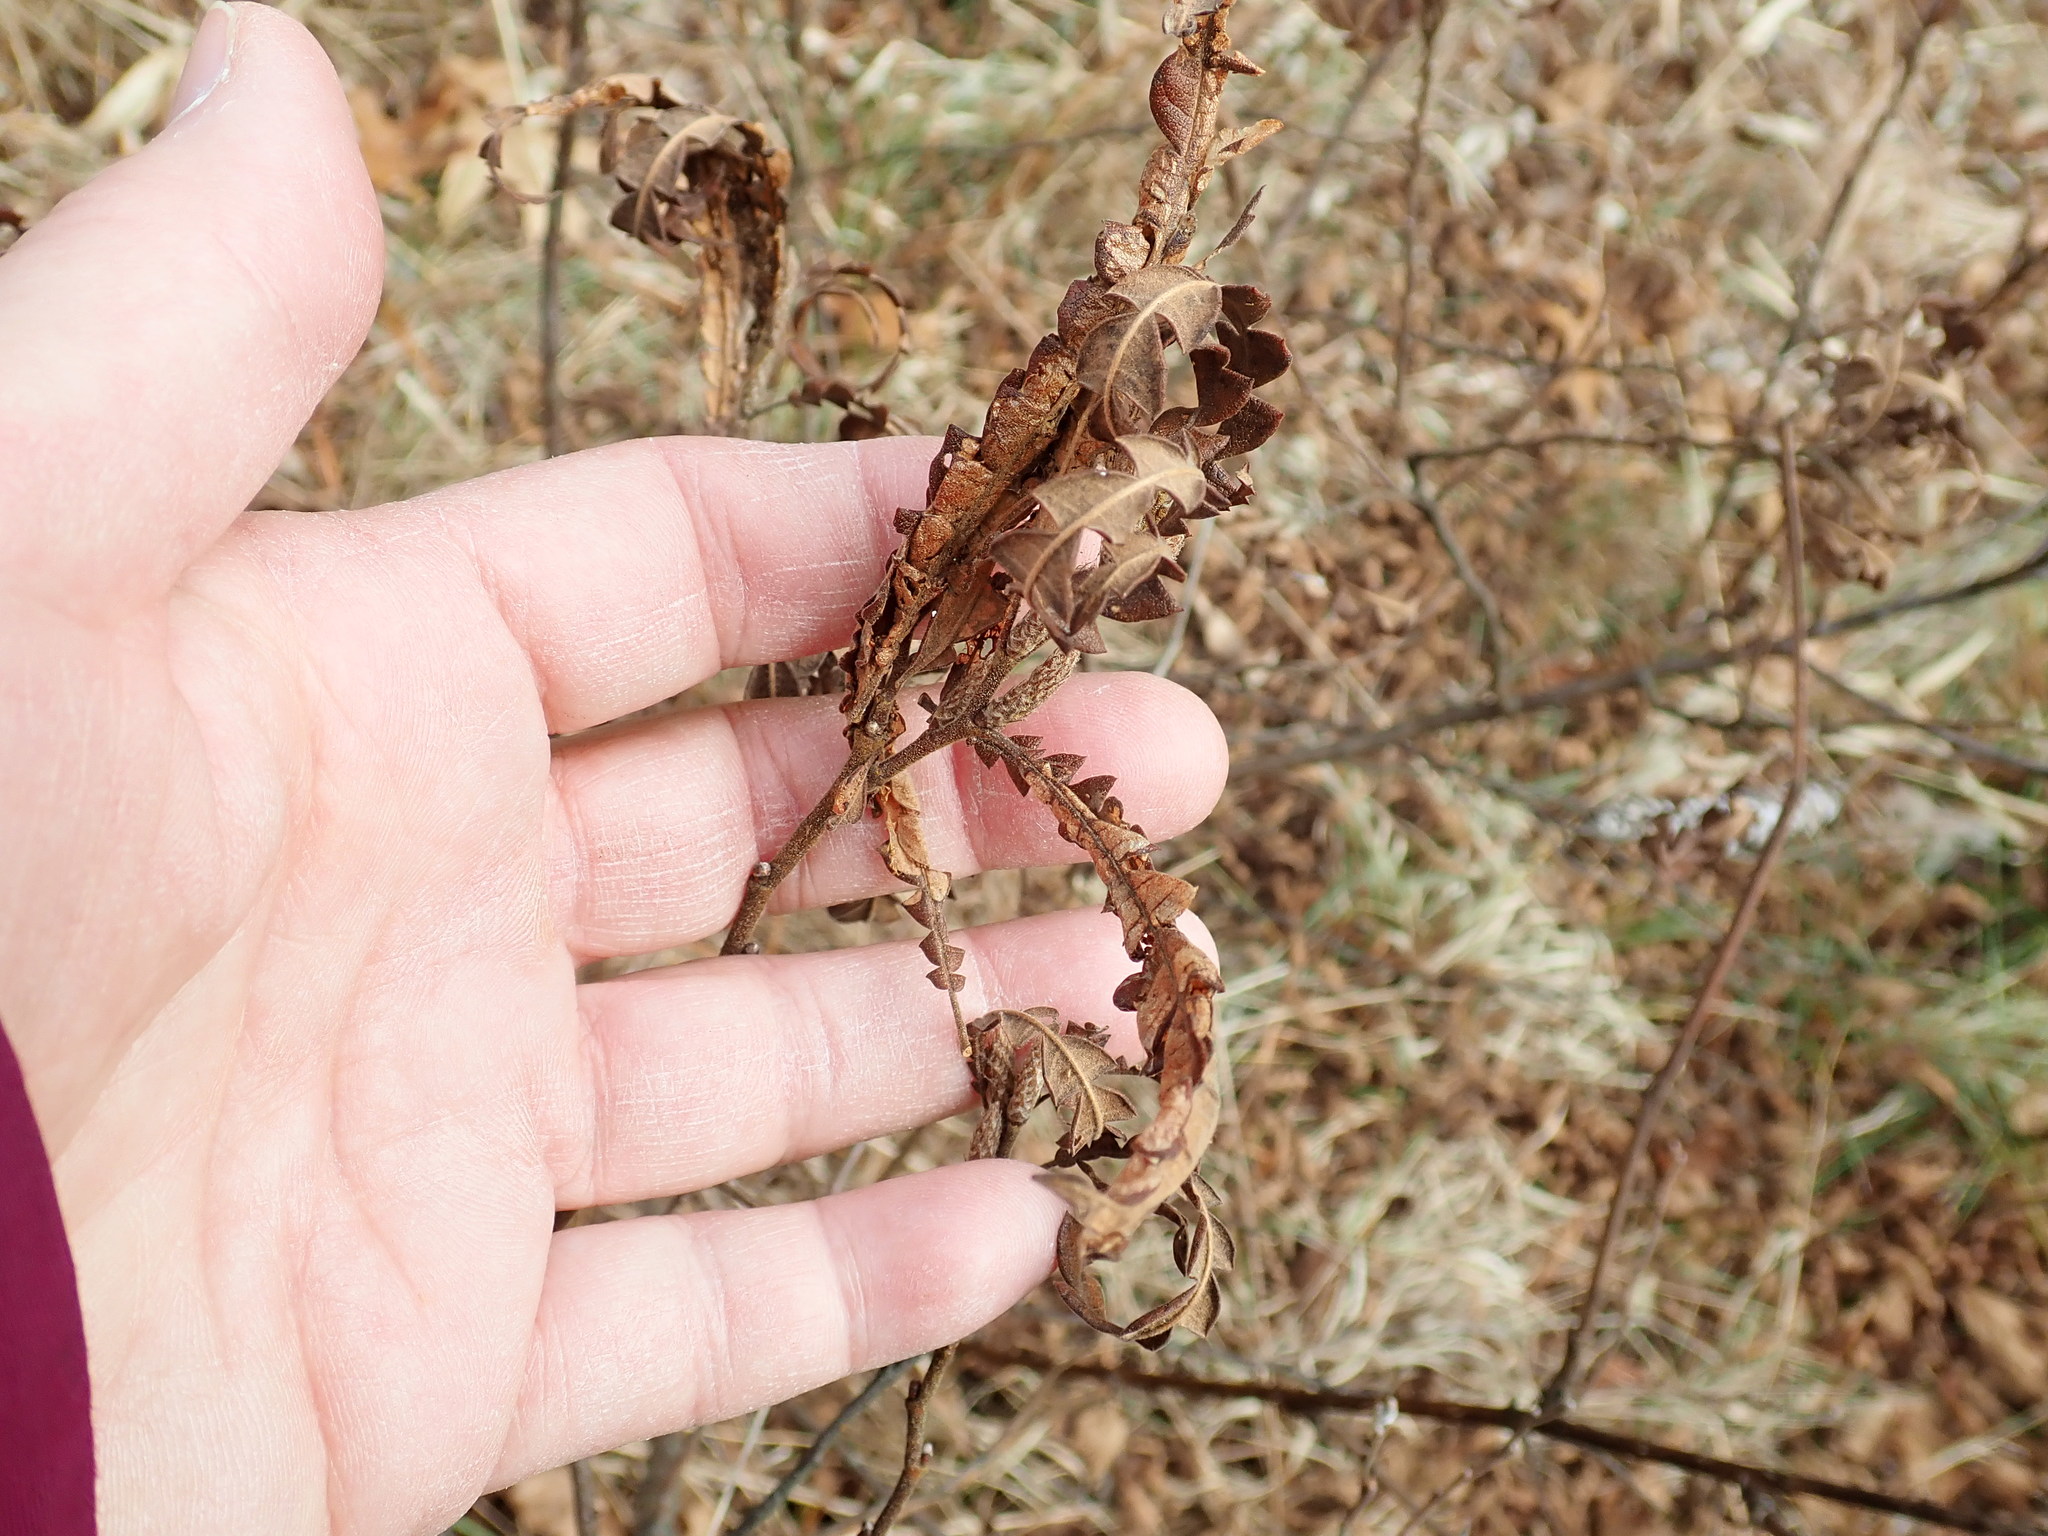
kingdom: Plantae
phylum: Tracheophyta
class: Magnoliopsida
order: Fagales
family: Myricaceae
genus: Comptonia
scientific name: Comptonia peregrina
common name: Sweet-fern
